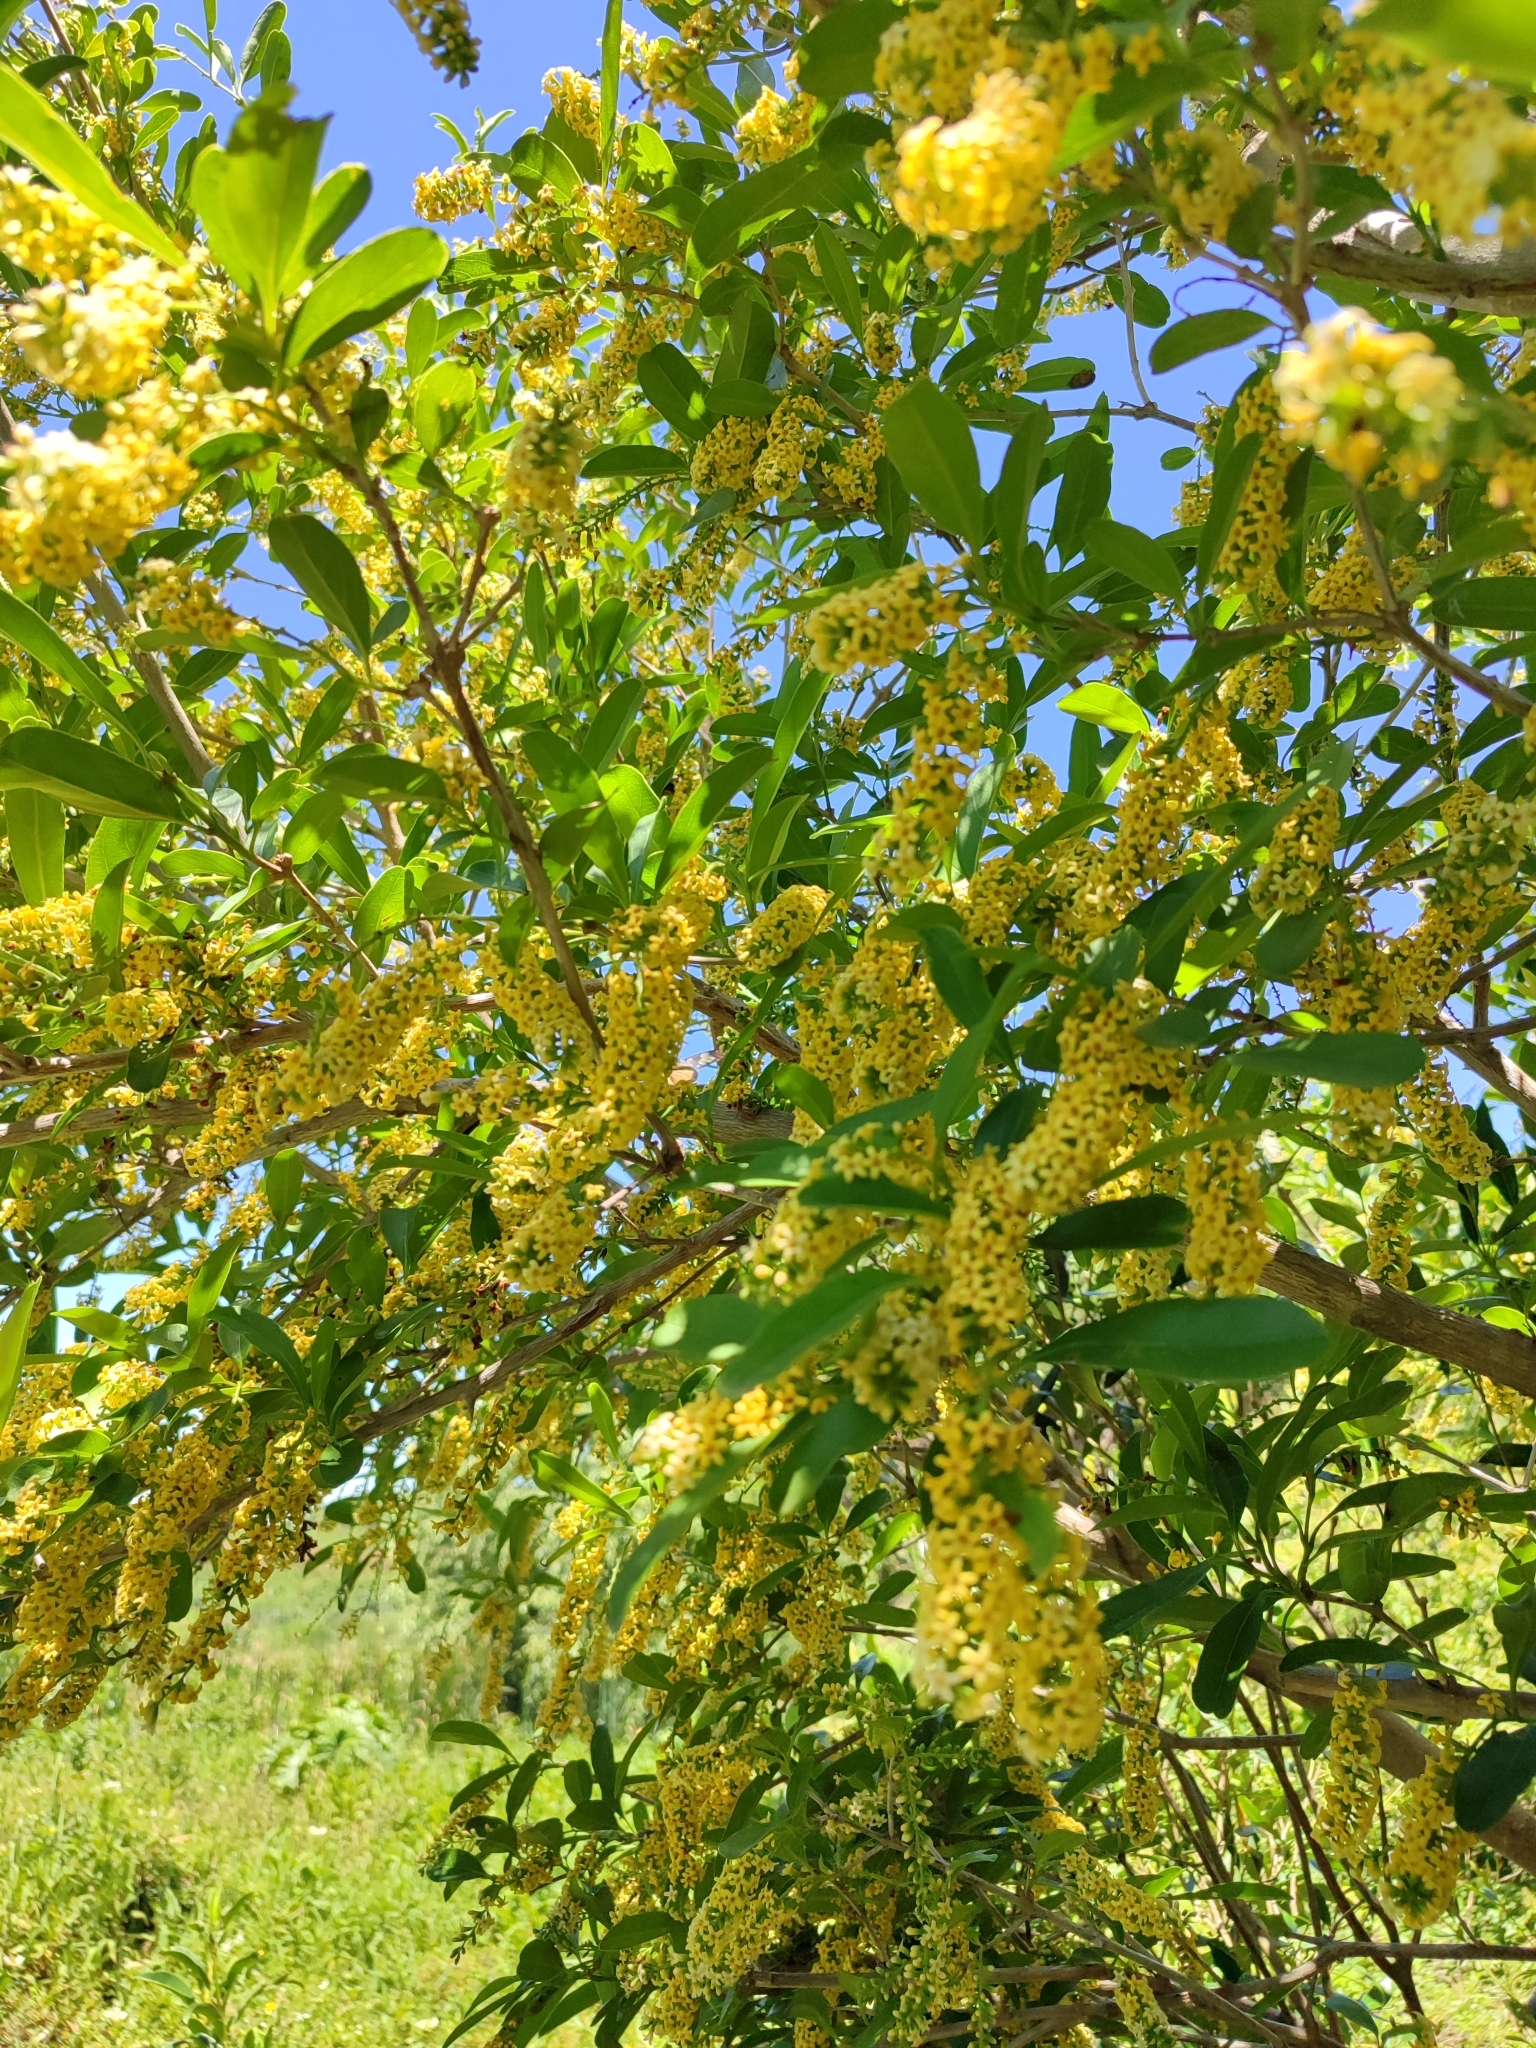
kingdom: Plantae
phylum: Tracheophyta
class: Magnoliopsida
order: Lamiales
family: Verbenaceae
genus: Citharexylum
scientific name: Citharexylum montevidense
